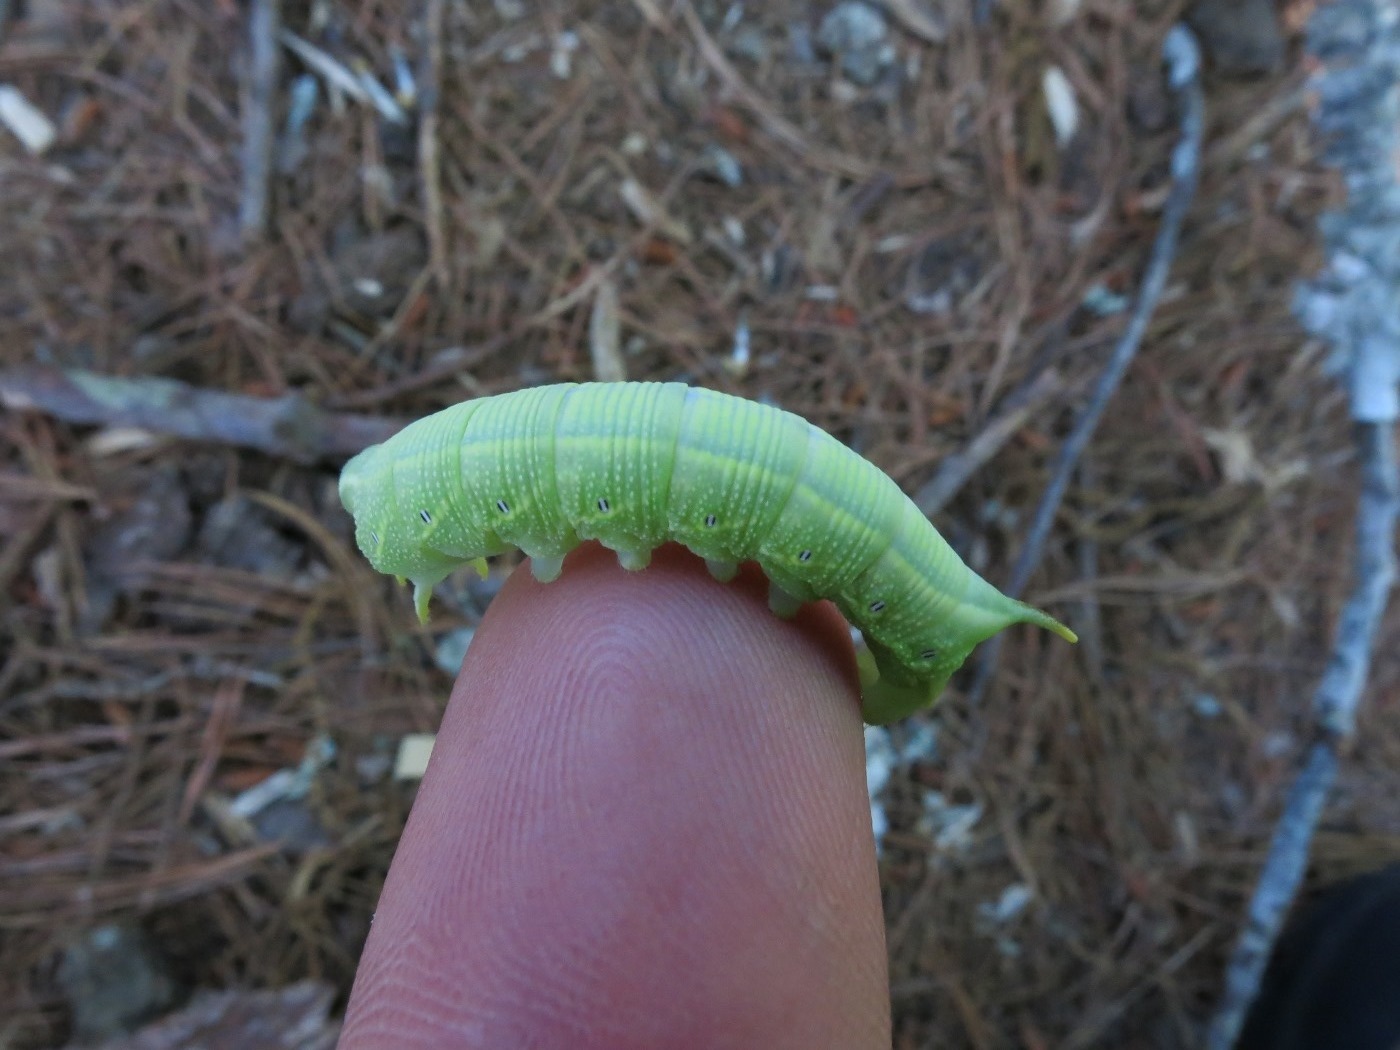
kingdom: Animalia
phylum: Arthropoda
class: Insecta
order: Lepidoptera
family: Sphingidae
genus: Deidamia
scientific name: Deidamia inscriptum
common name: Lettered sphinx
